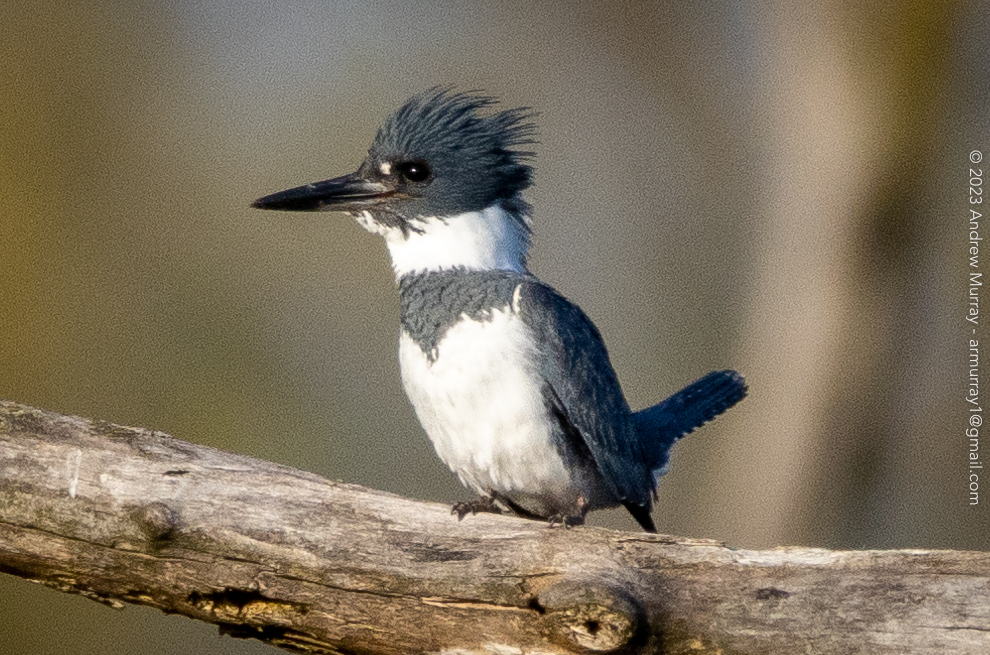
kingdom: Animalia
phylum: Chordata
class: Aves
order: Coraciiformes
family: Alcedinidae
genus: Megaceryle
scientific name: Megaceryle alcyon
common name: Belted kingfisher
